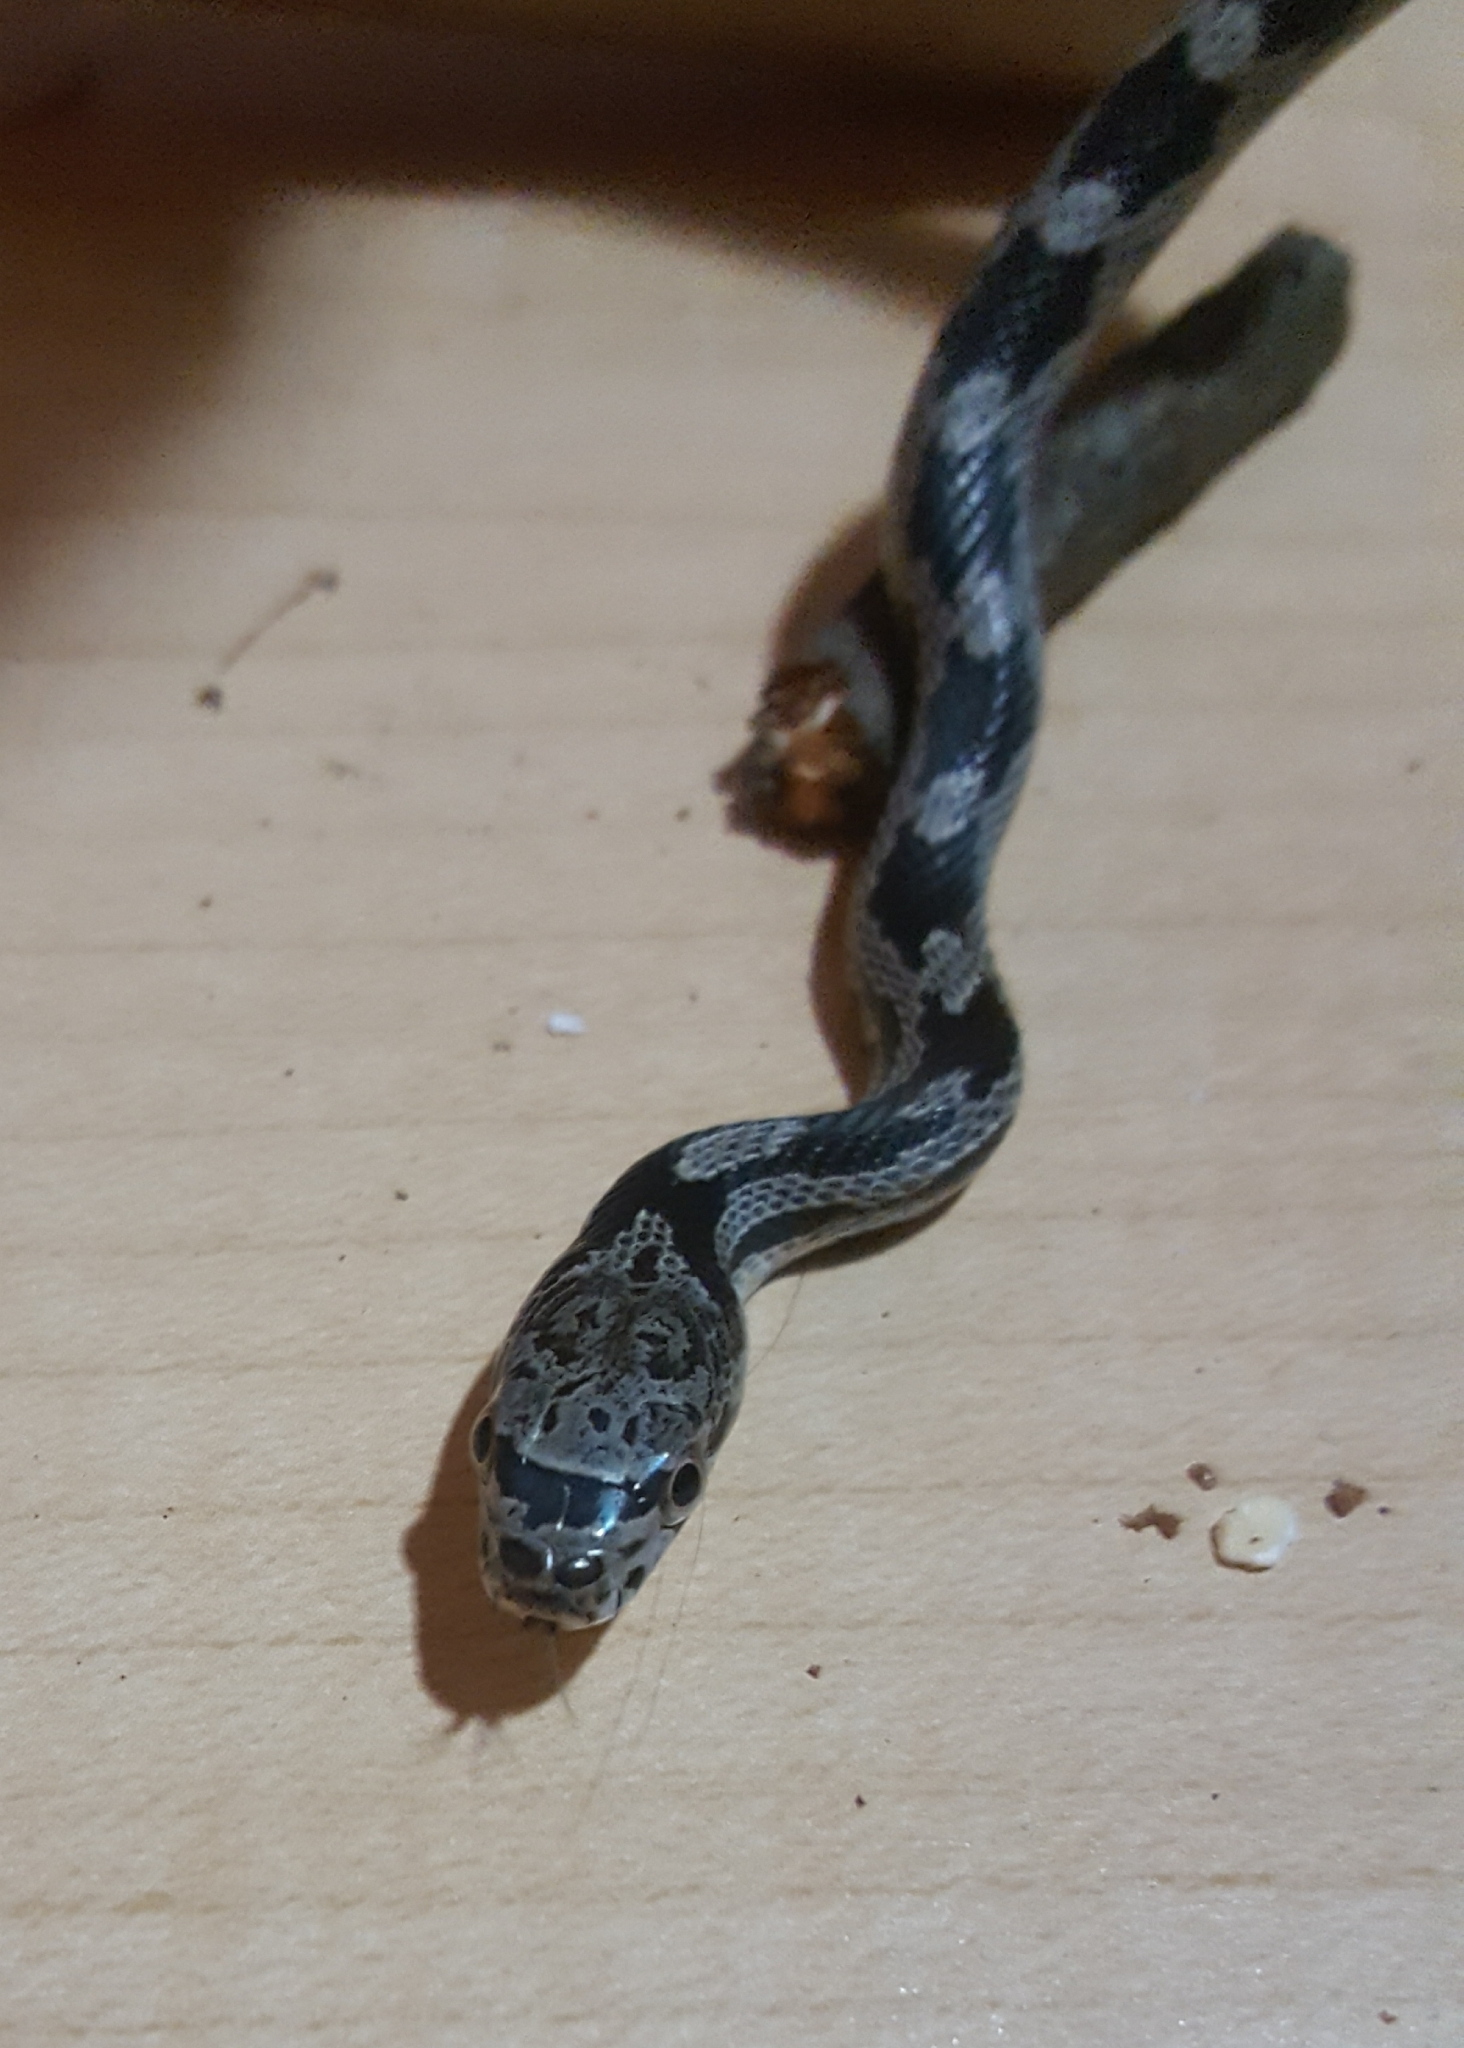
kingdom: Animalia
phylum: Chordata
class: Squamata
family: Colubridae
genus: Pantherophis
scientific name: Pantherophis alleghaniensis
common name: Eastern rat snake
